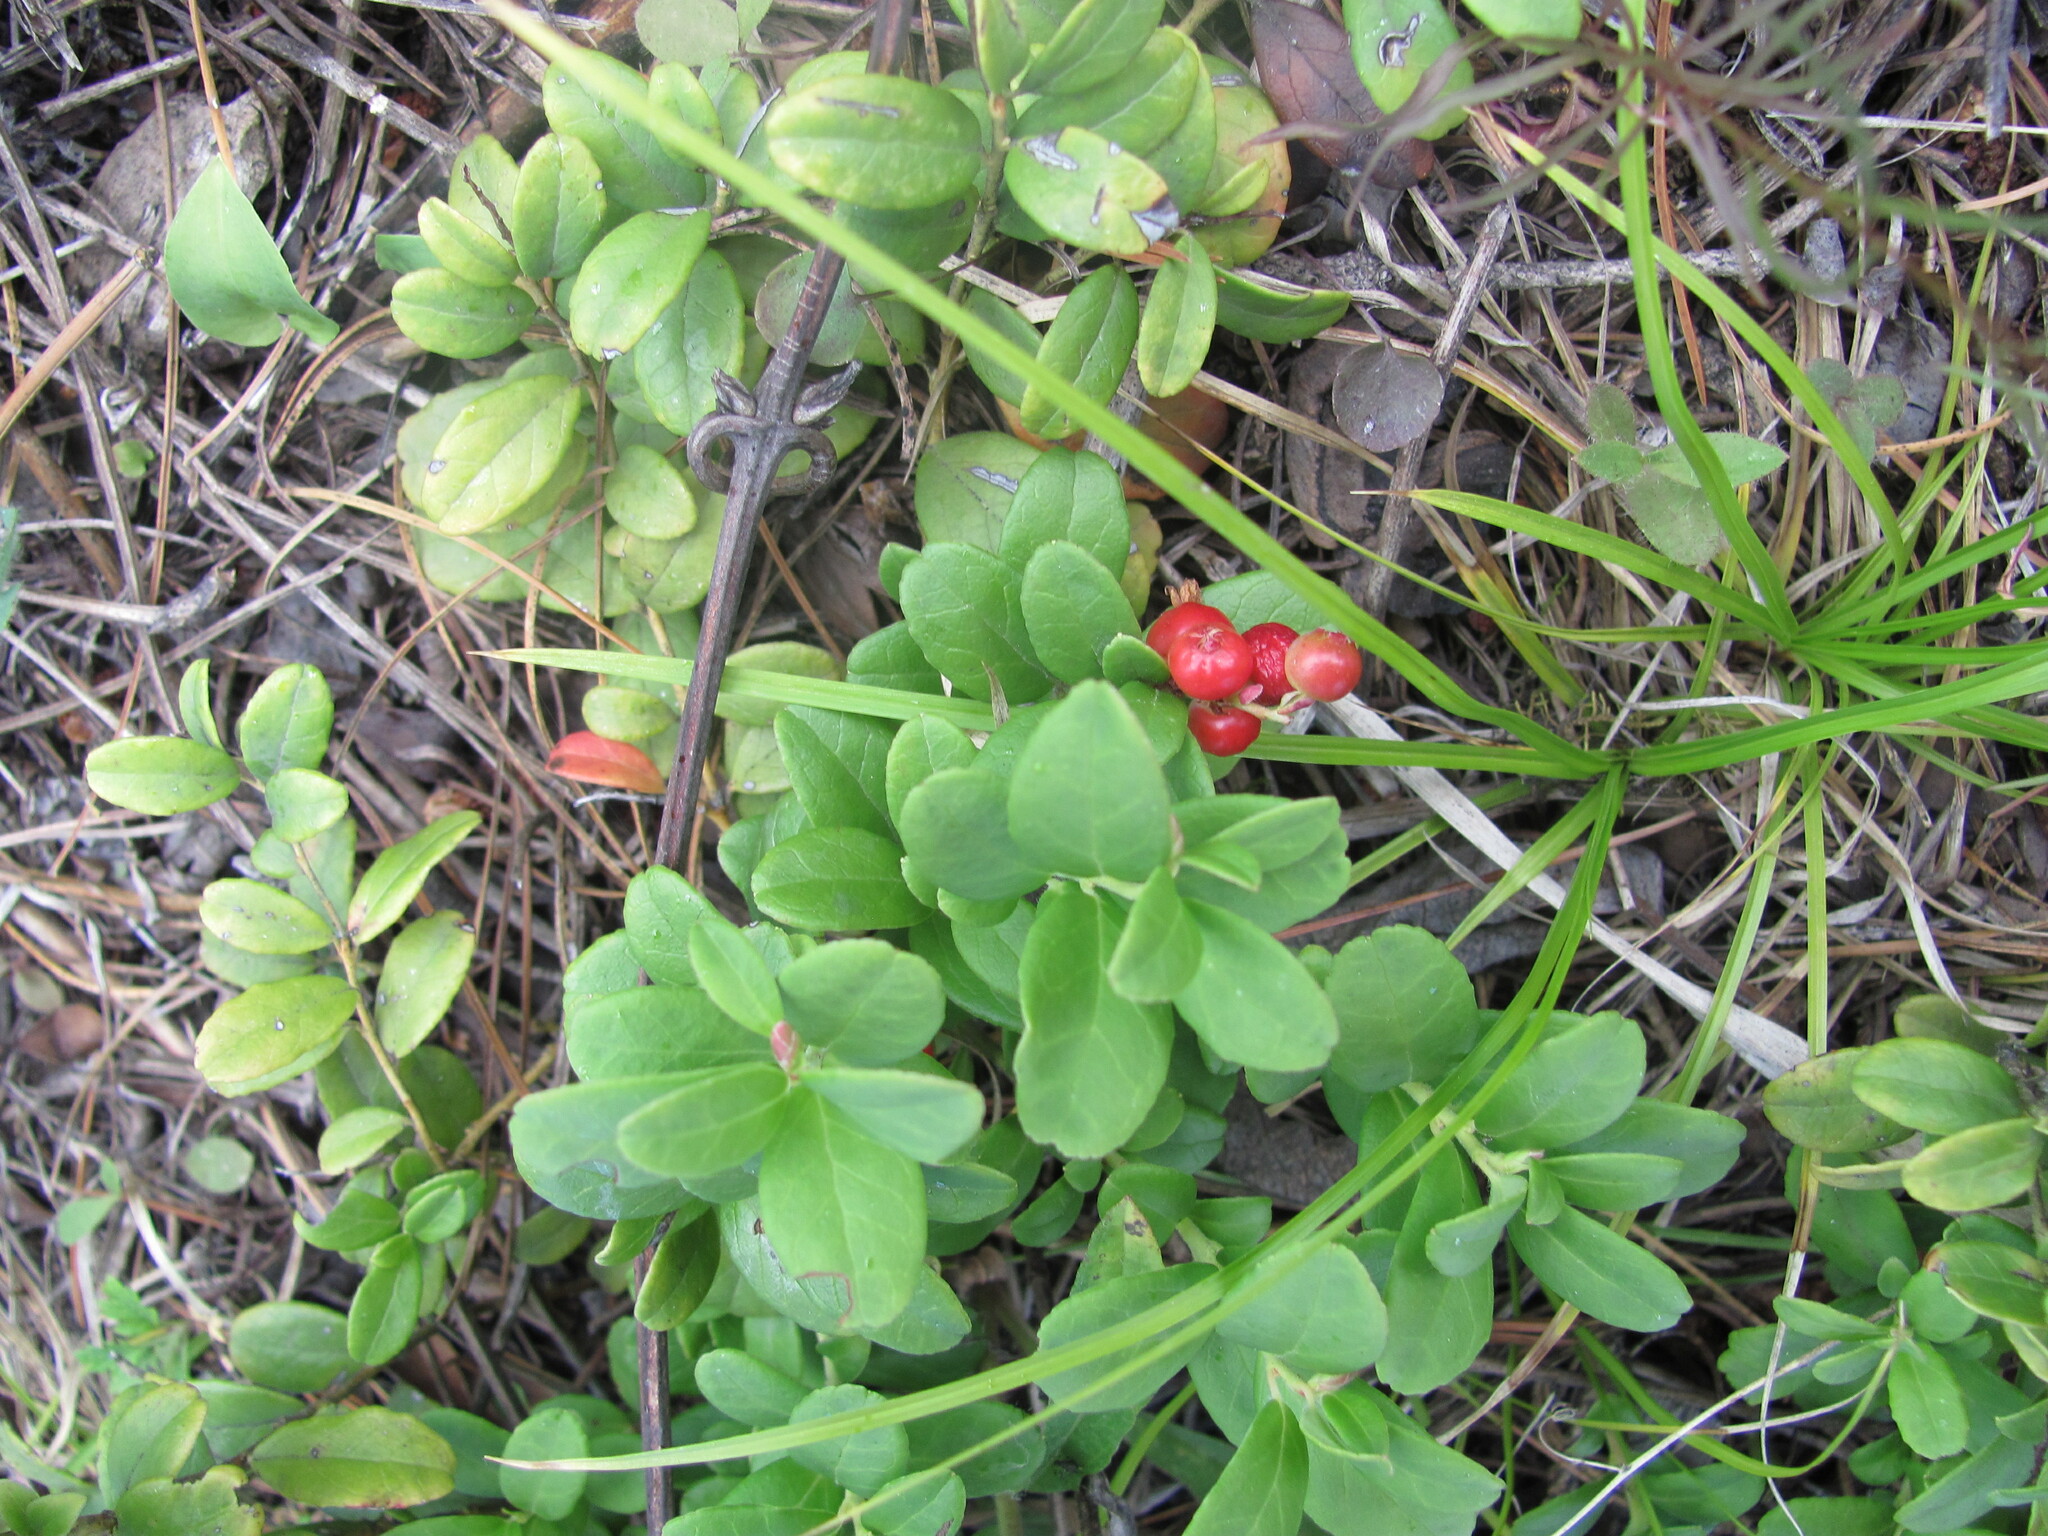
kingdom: Plantae
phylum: Tracheophyta
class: Magnoliopsida
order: Ericales
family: Ericaceae
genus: Vaccinium
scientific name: Vaccinium vitis-idaea
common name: Cowberry
